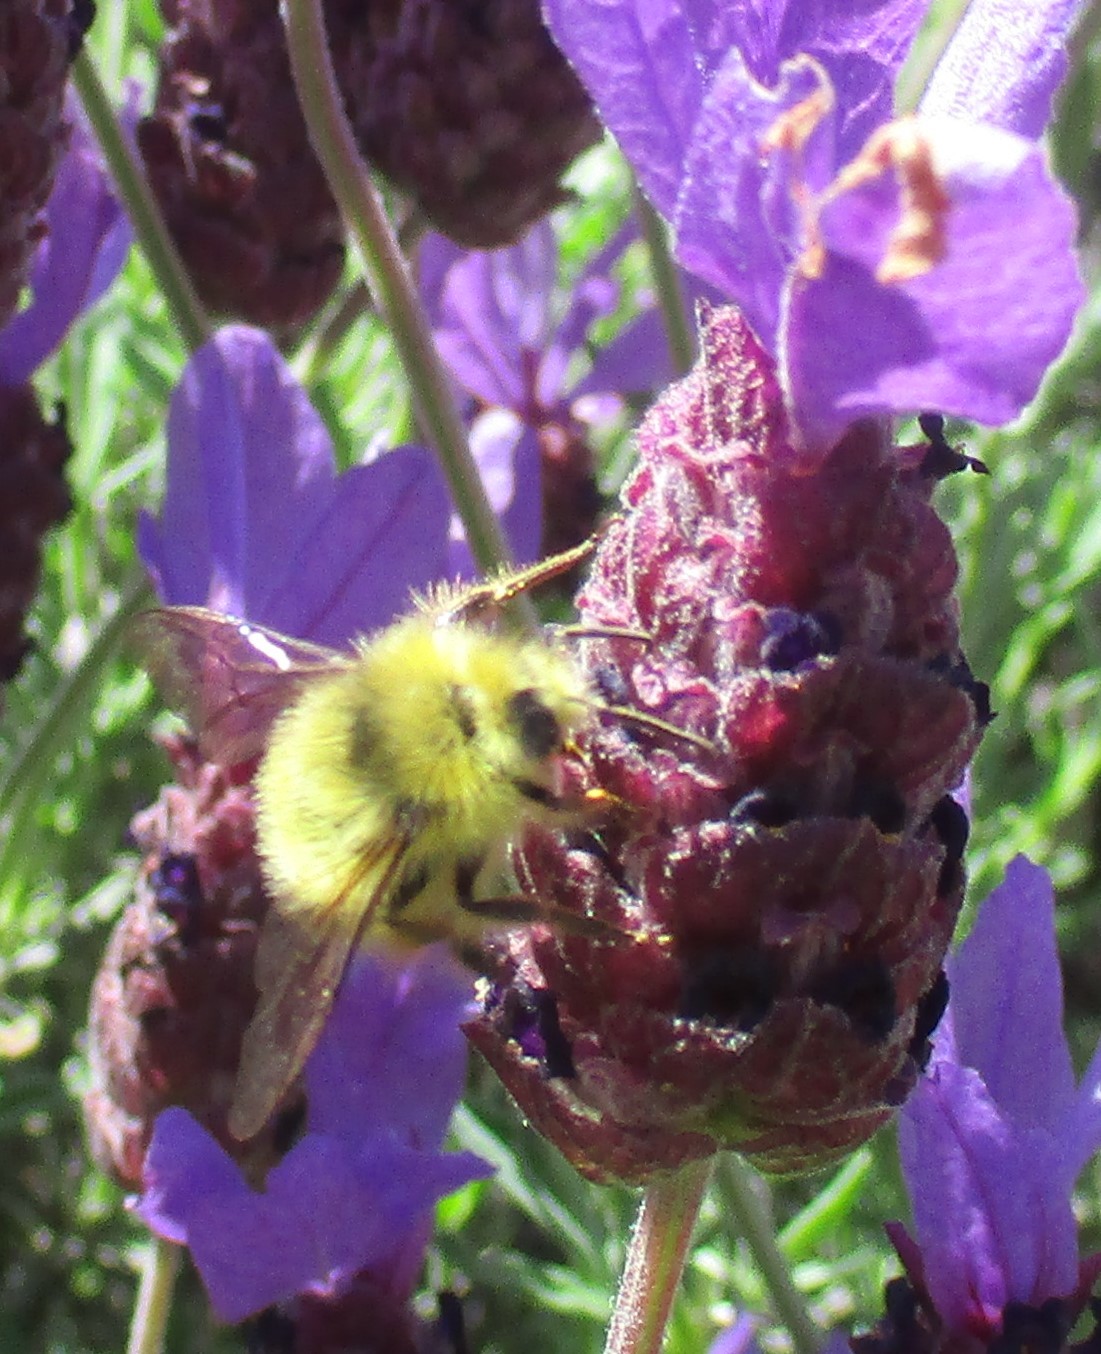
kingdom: Animalia
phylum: Arthropoda
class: Insecta
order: Hymenoptera
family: Apidae
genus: Bombus
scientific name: Bombus mixtus
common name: Fuzzy-horned bumble bee
